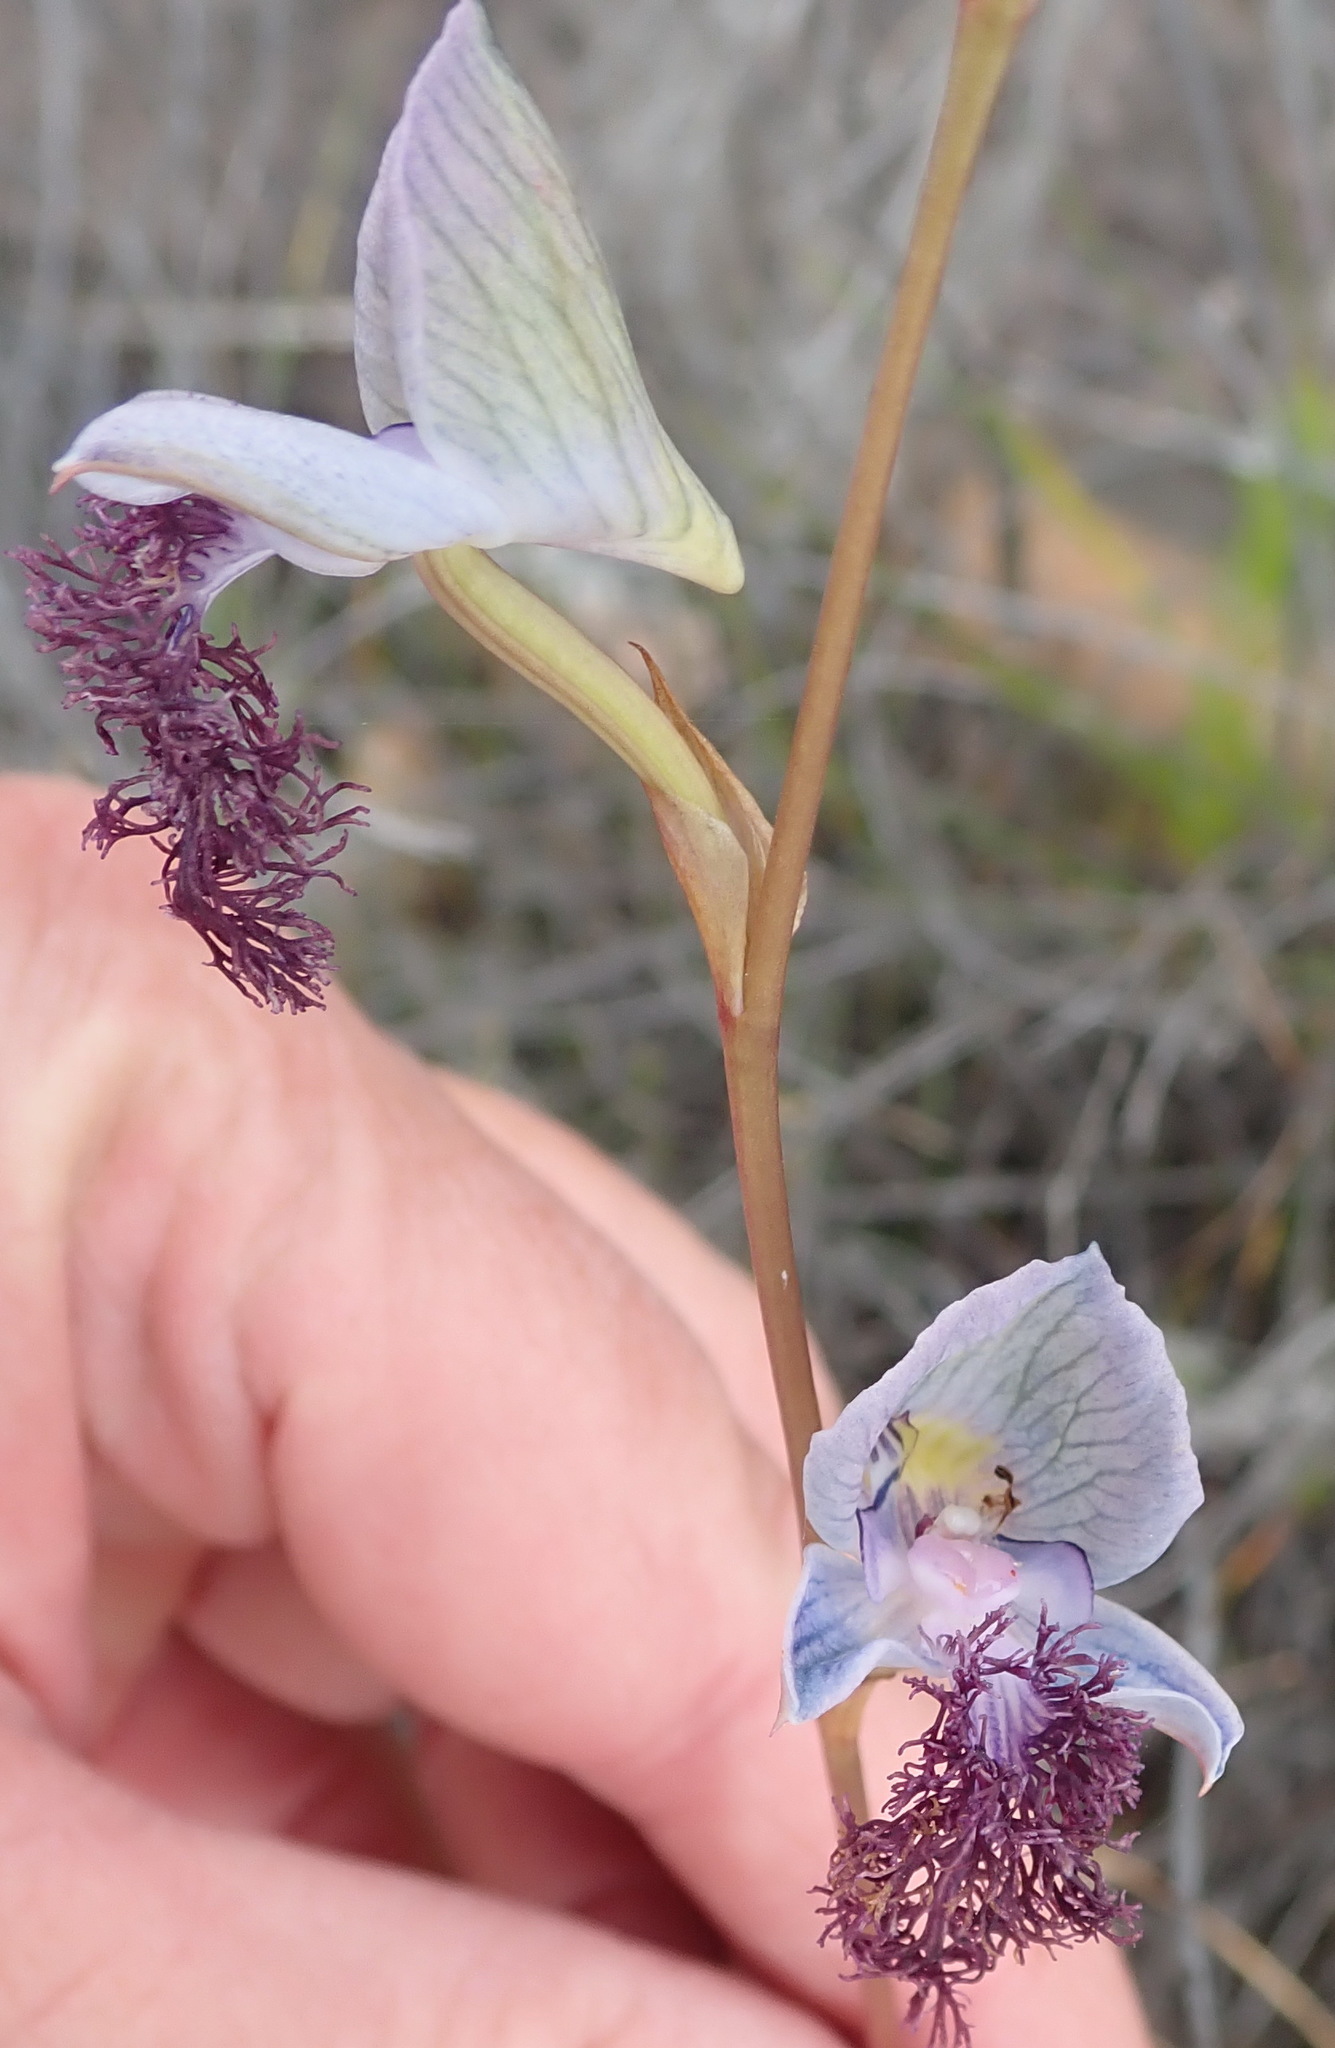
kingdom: Plantae
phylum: Tracheophyta
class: Liliopsida
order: Asparagales
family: Orchidaceae
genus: Disa
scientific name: Disa lugens
